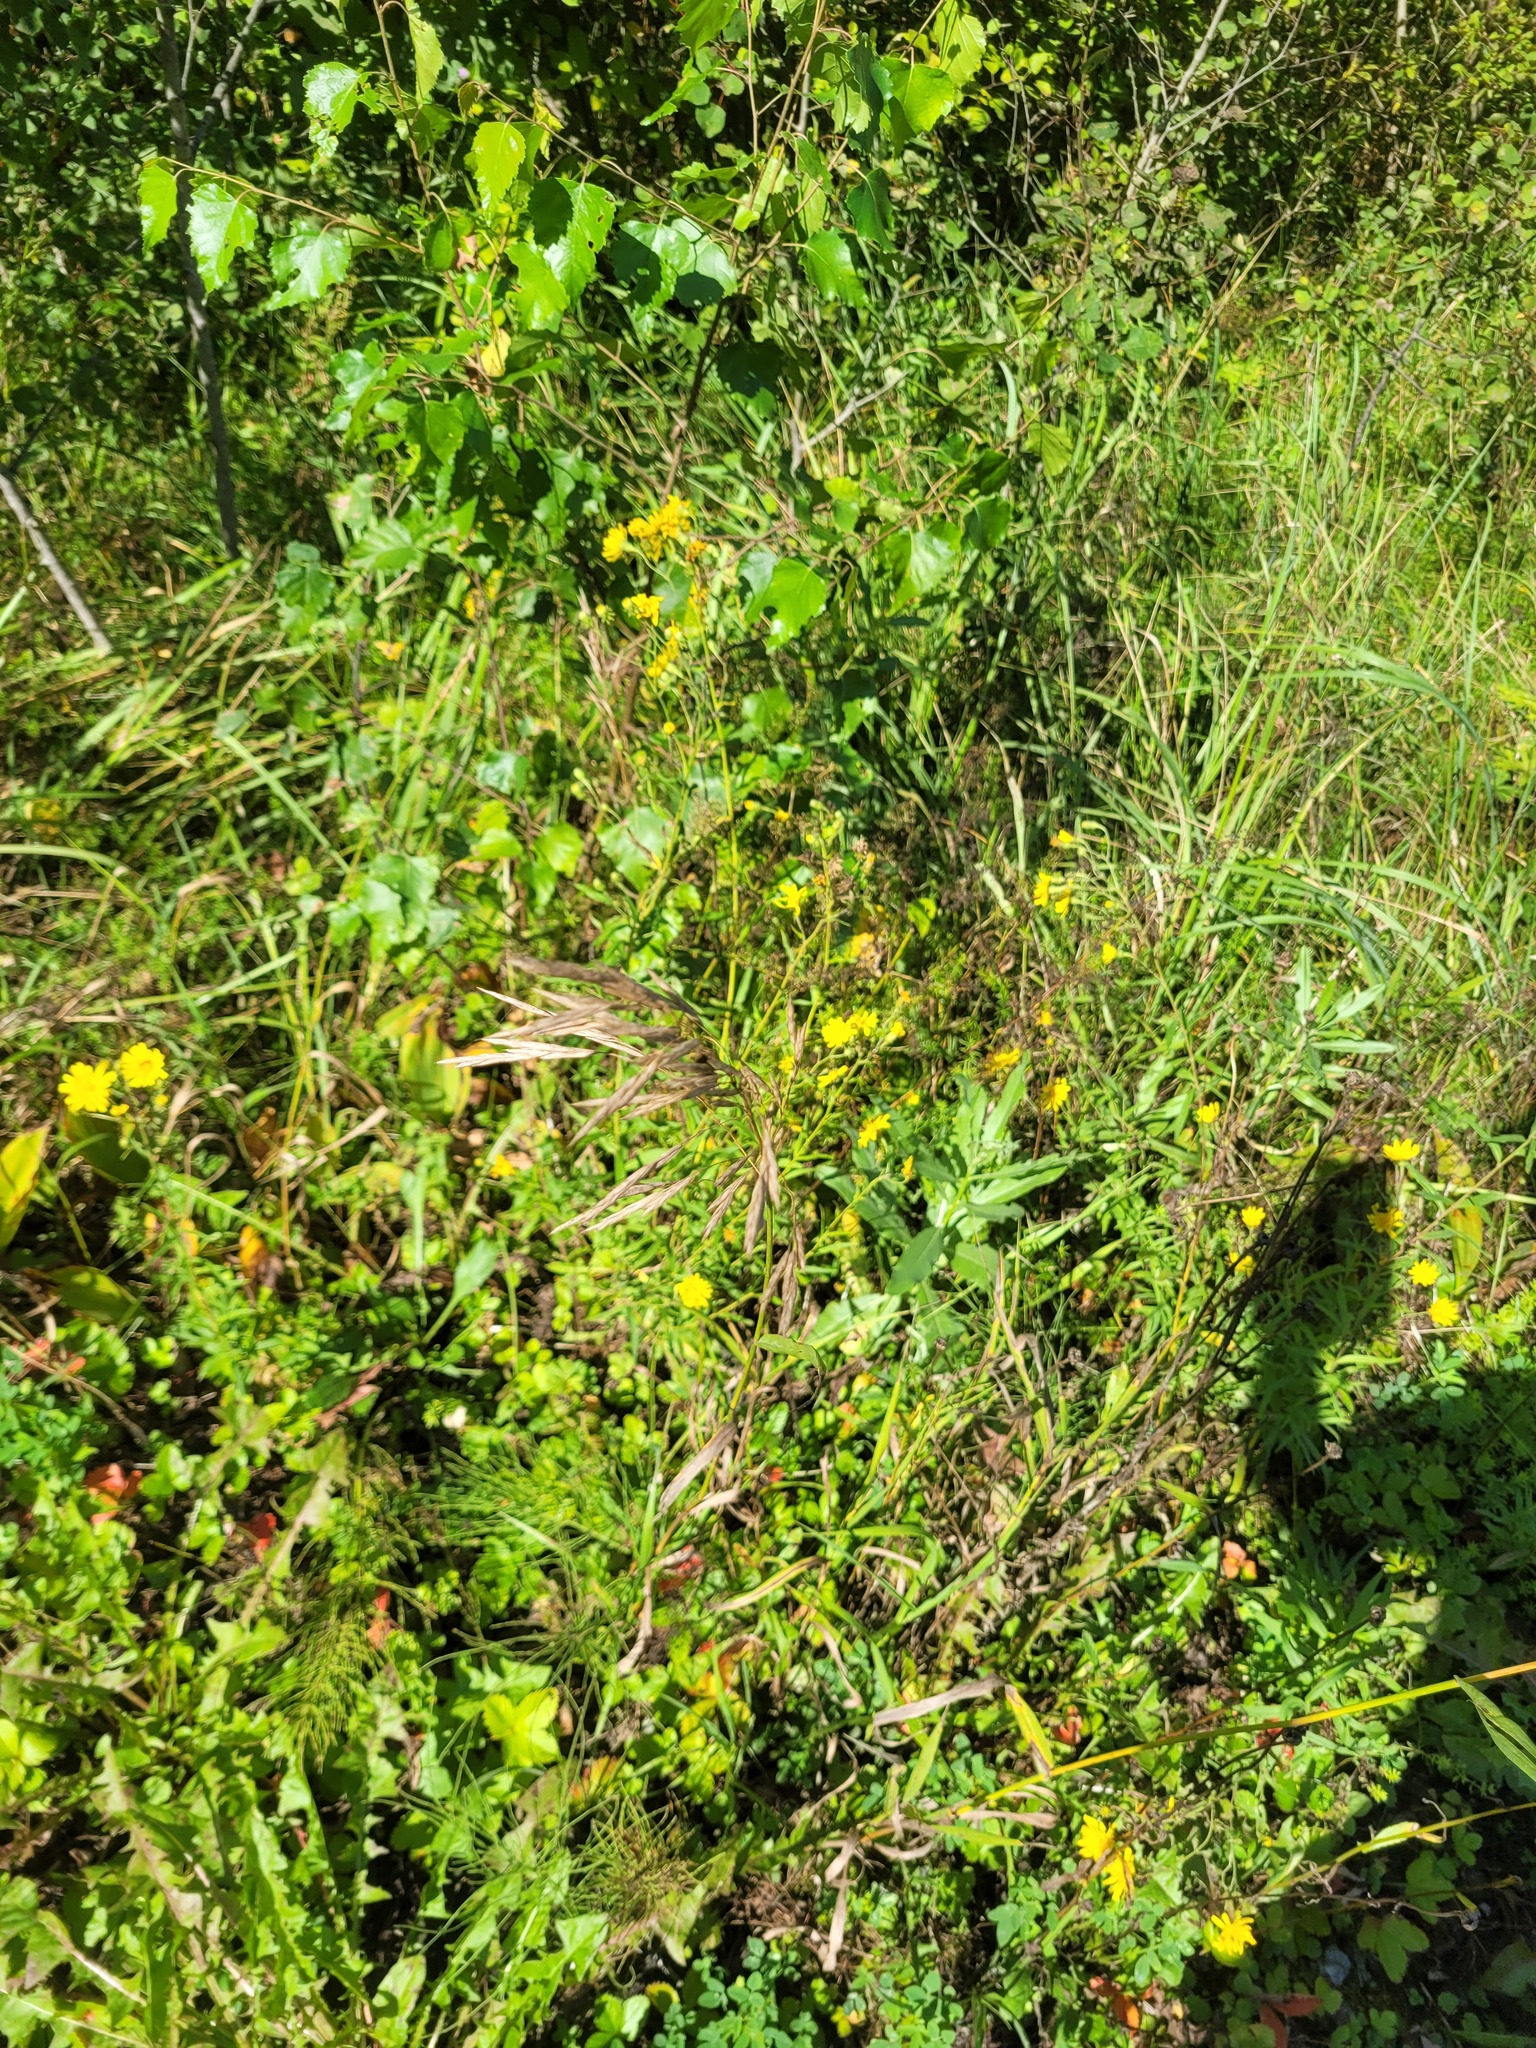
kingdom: Plantae
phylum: Tracheophyta
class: Liliopsida
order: Poales
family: Poaceae
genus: Bromus
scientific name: Bromus inermis
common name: Smooth brome
